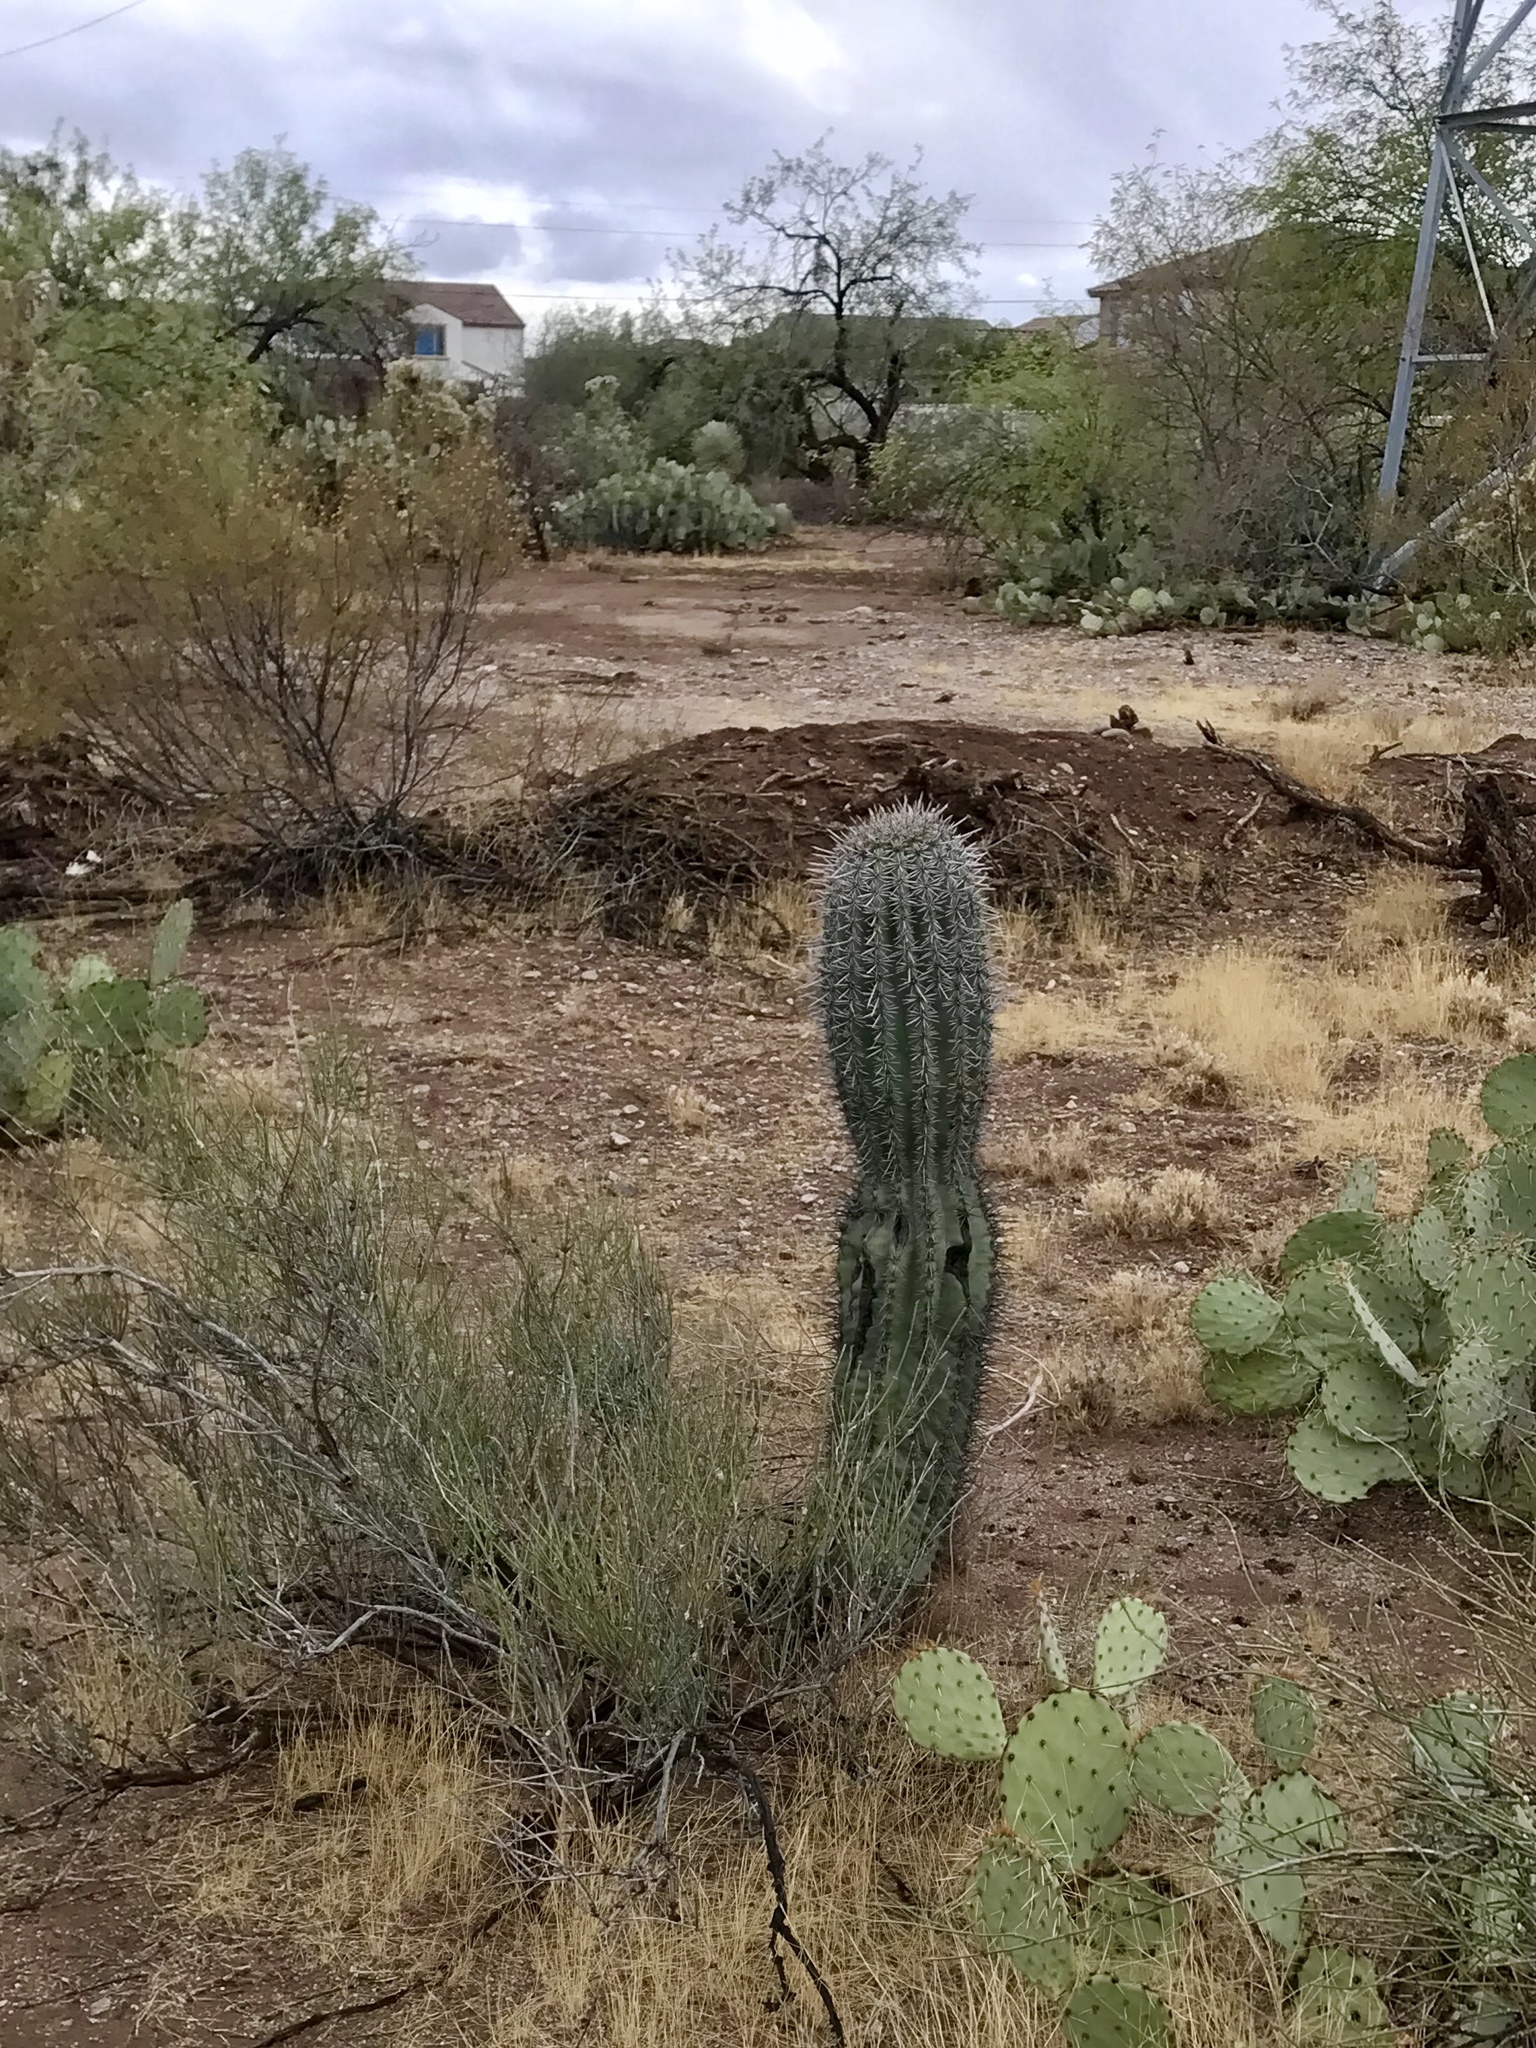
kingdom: Plantae
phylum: Tracheophyta
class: Magnoliopsida
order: Caryophyllales
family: Cactaceae
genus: Carnegiea
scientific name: Carnegiea gigantea
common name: Saguaro
